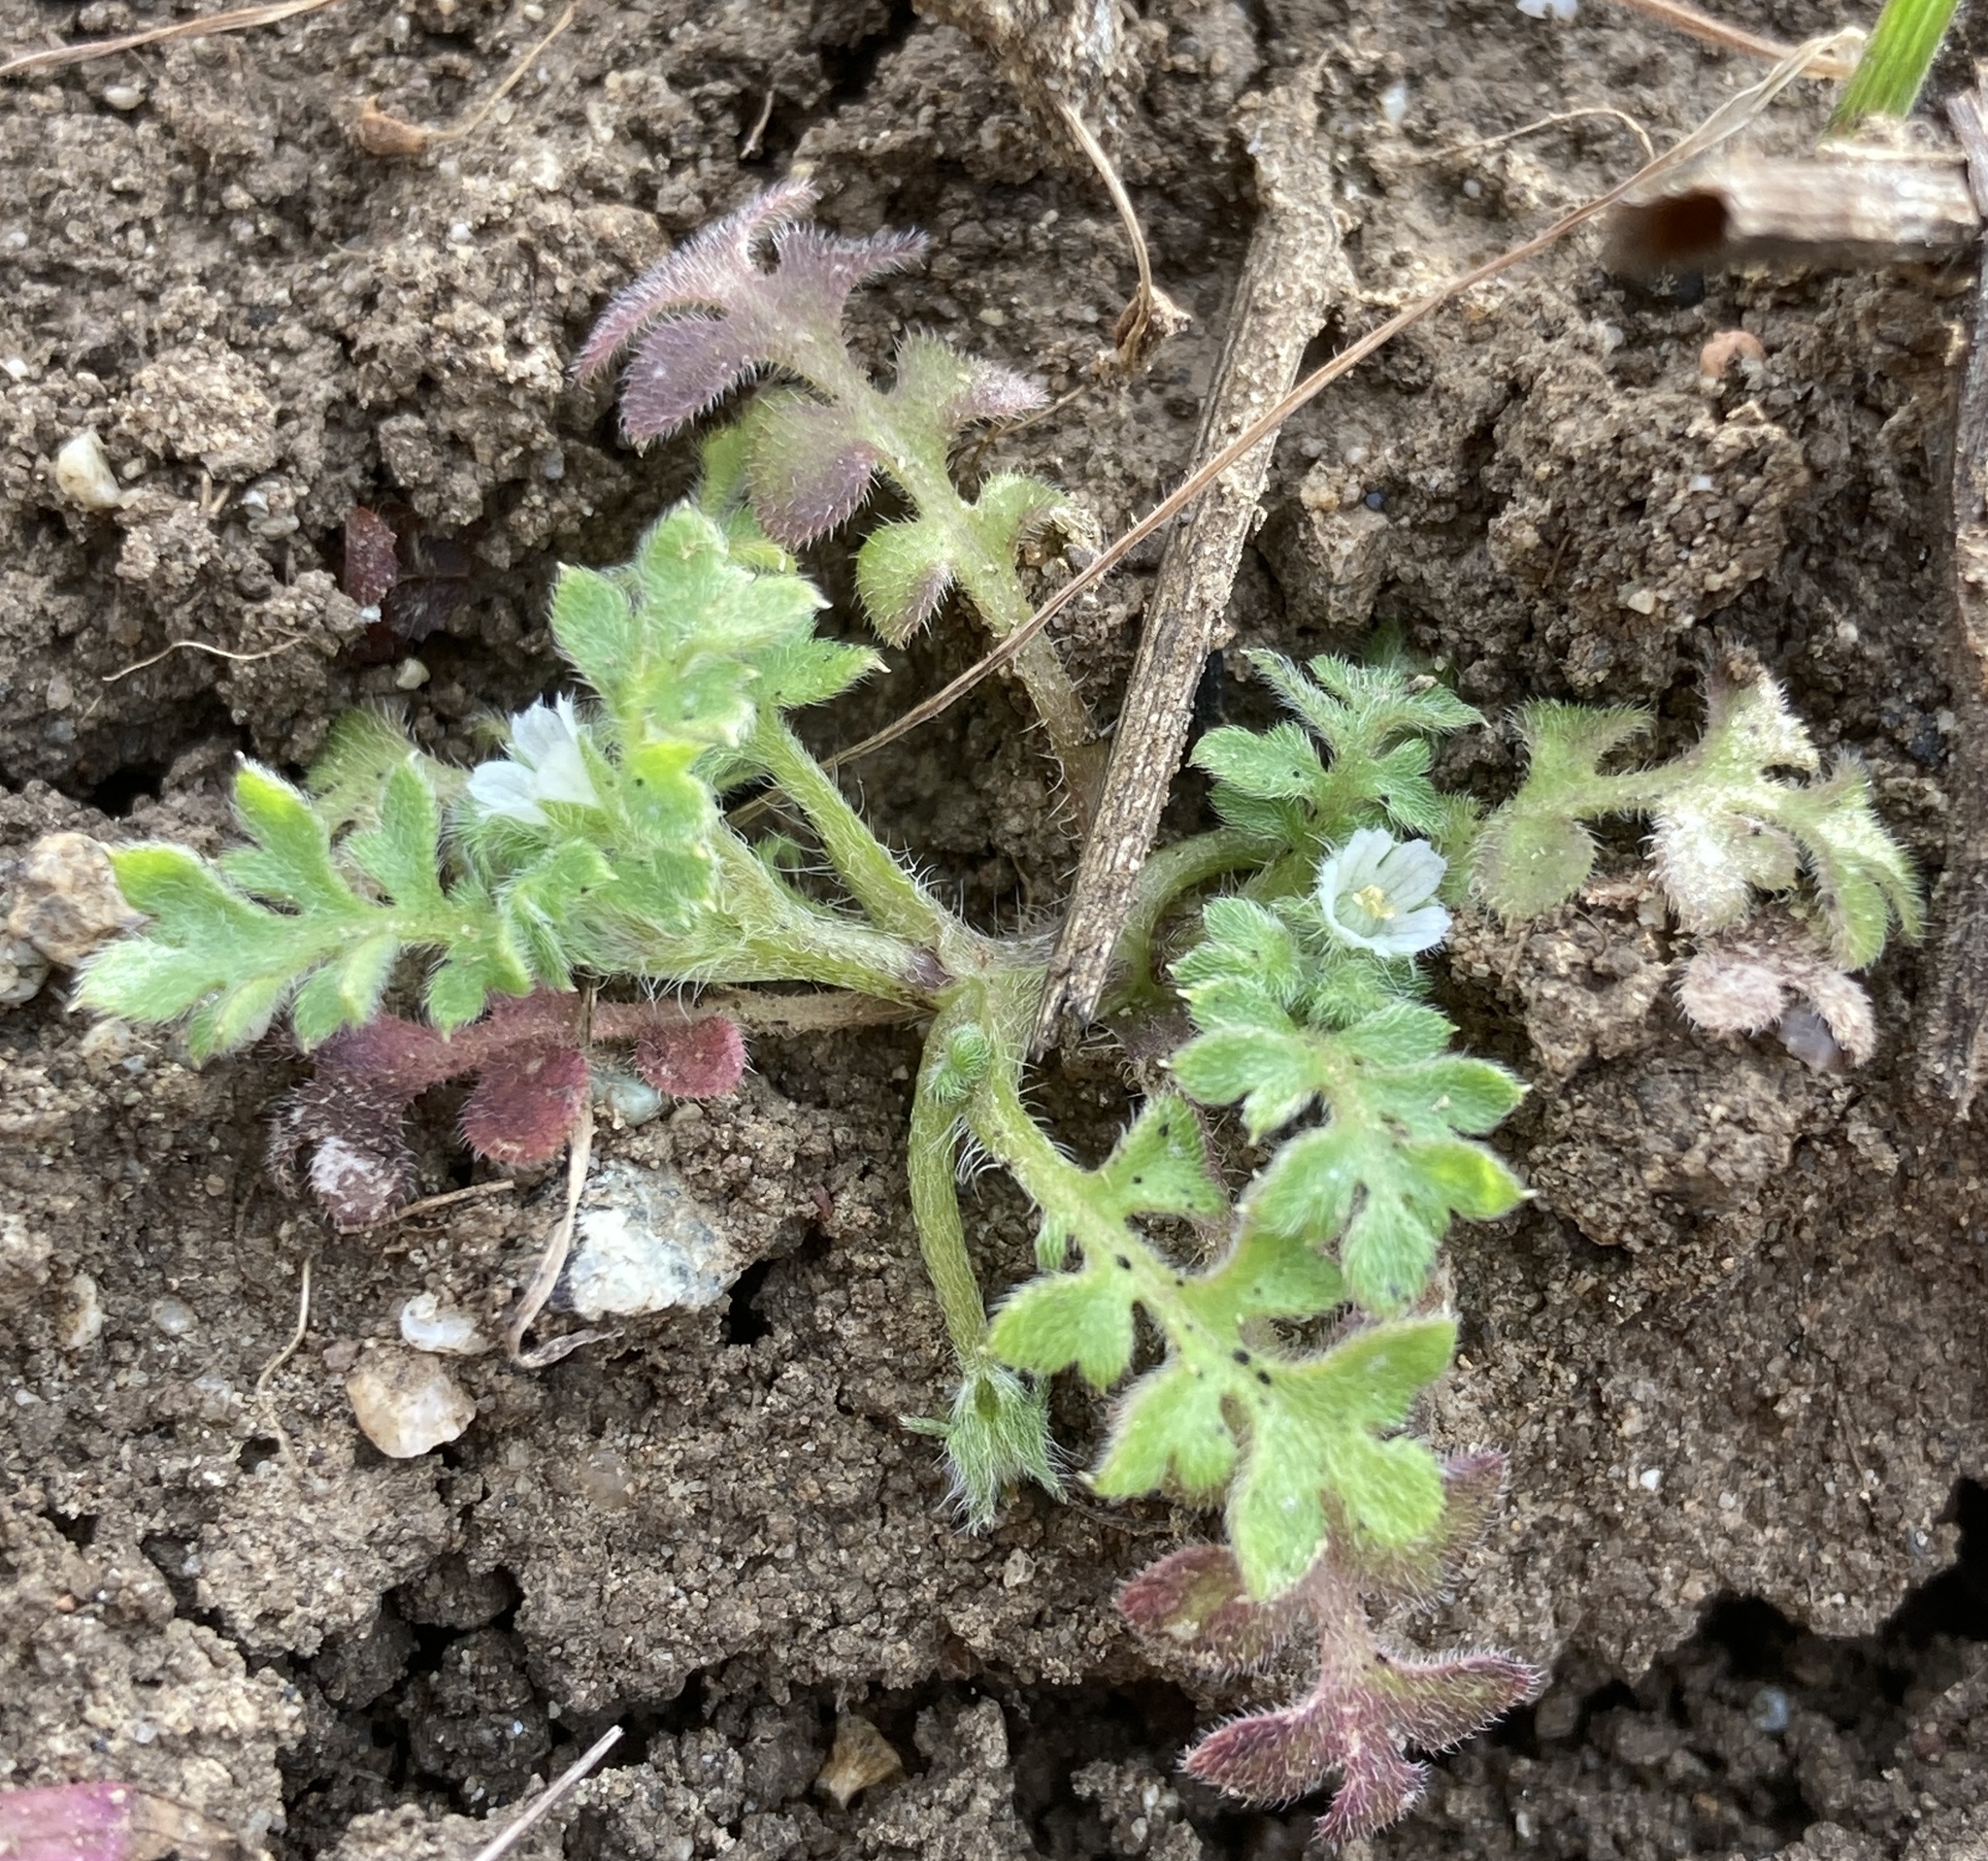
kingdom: Plantae
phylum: Tracheophyta
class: Magnoliopsida
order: Boraginales
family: Hydrophyllaceae
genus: Nemophila
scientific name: Nemophila pedunculata
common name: Little-foot baby-blue-eyes
